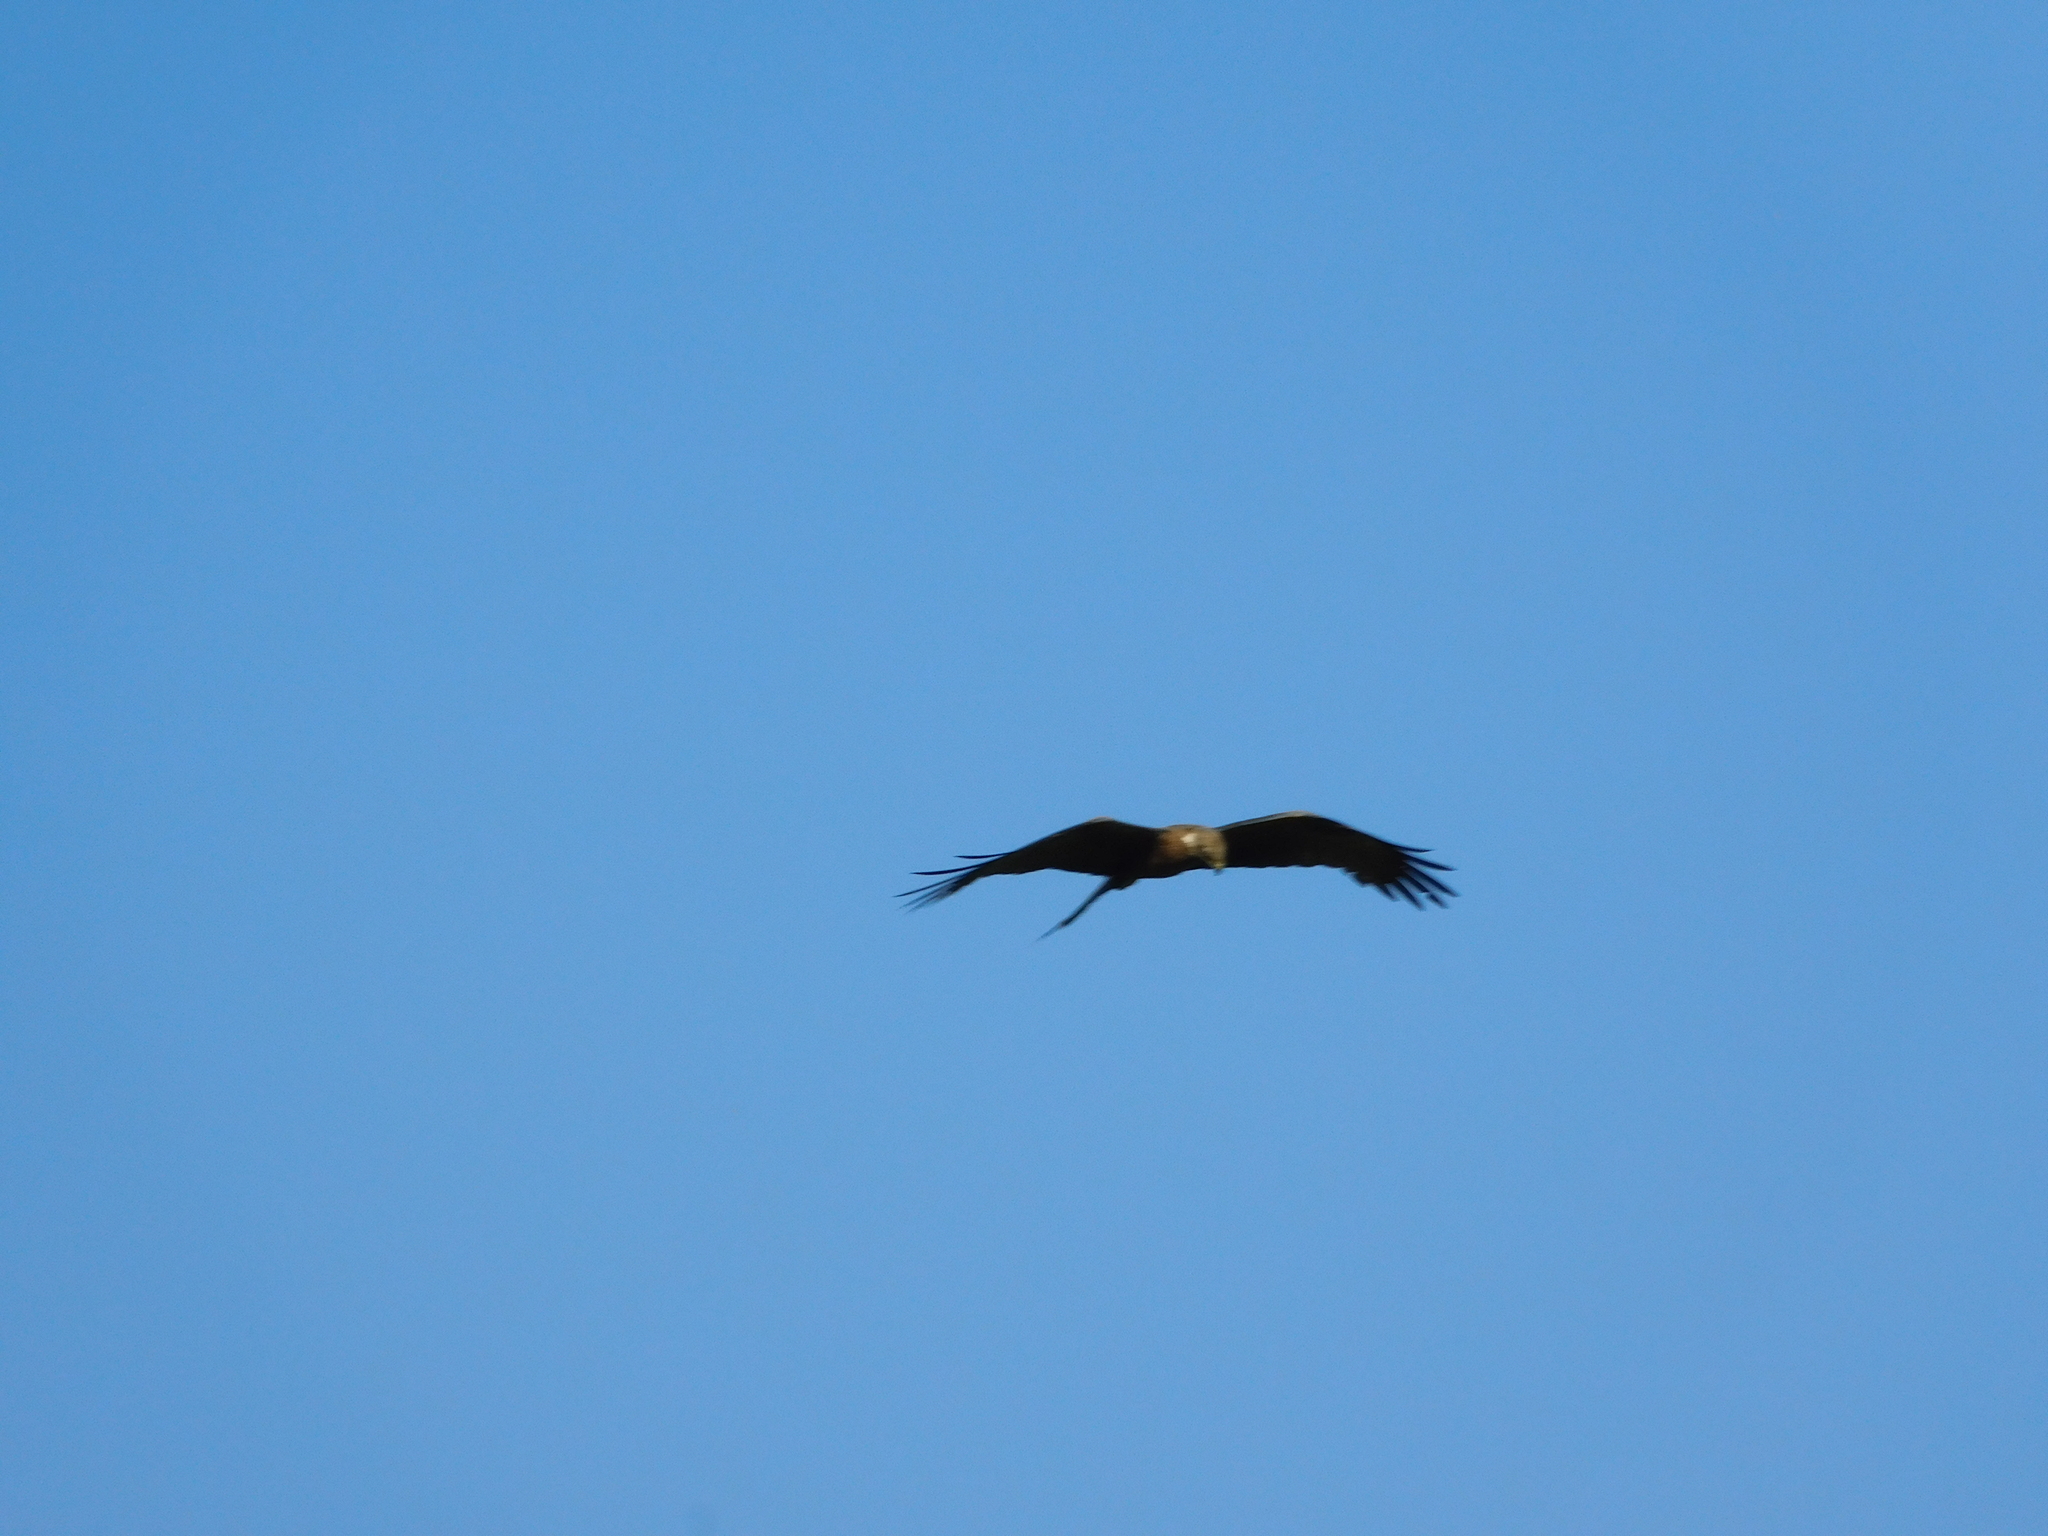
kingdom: Animalia
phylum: Chordata
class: Aves
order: Accipitriformes
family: Accipitridae
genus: Milvus
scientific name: Milvus migrans
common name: Black kite
